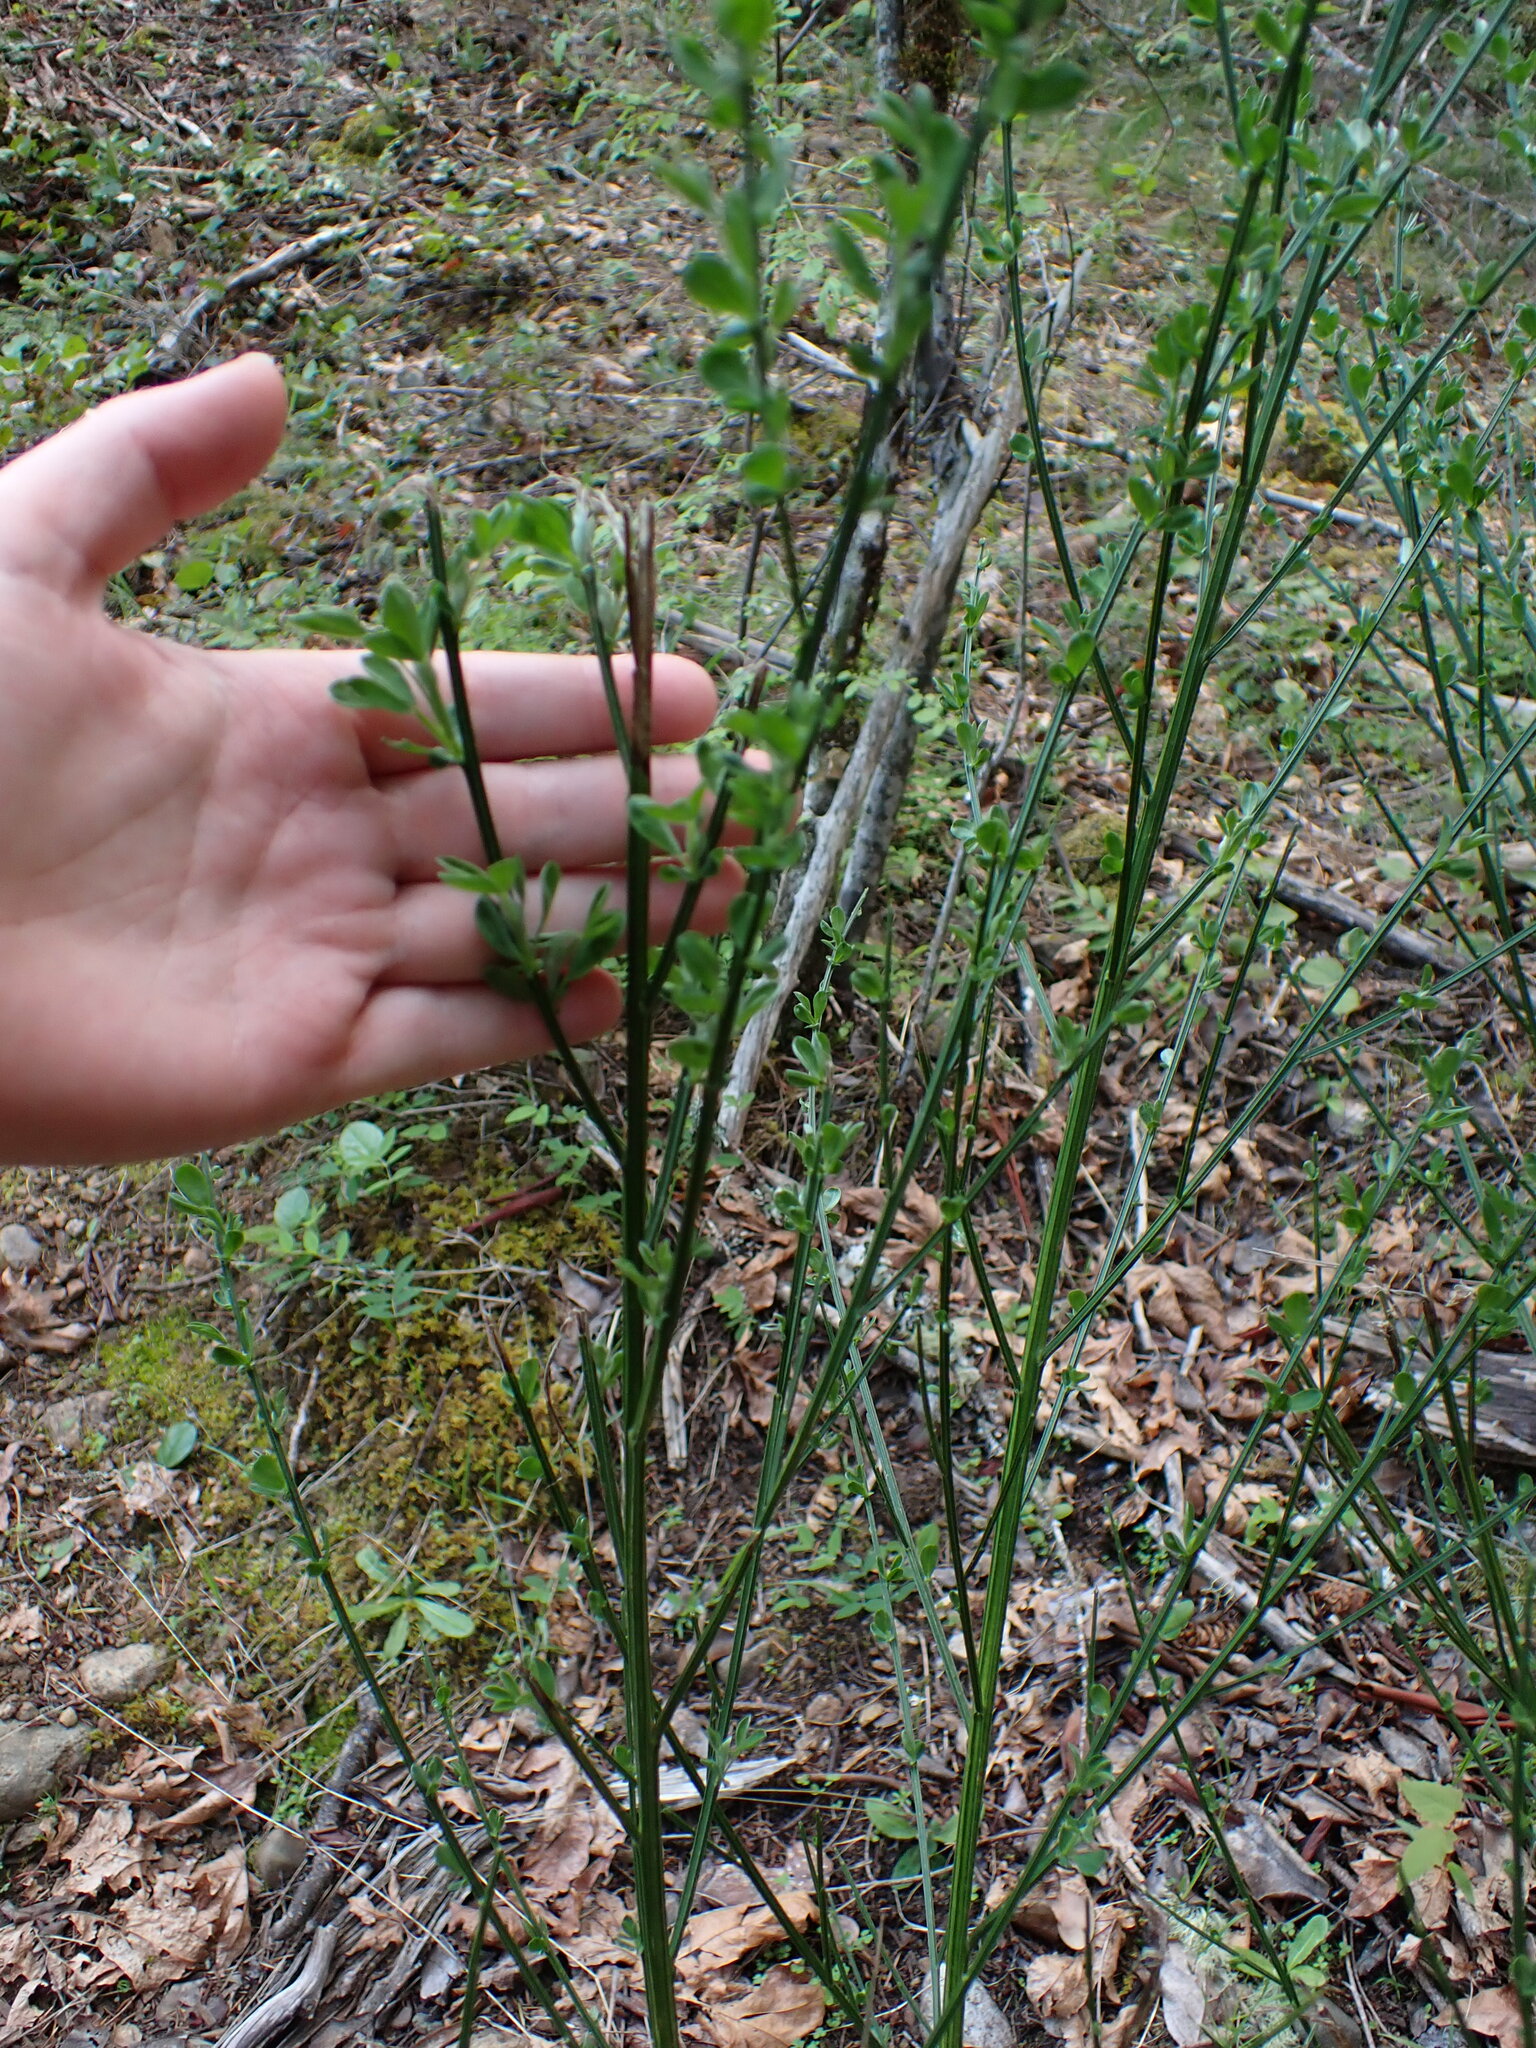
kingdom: Plantae
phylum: Tracheophyta
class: Magnoliopsida
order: Fabales
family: Fabaceae
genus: Cytisus
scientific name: Cytisus scoparius
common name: Scotch broom
